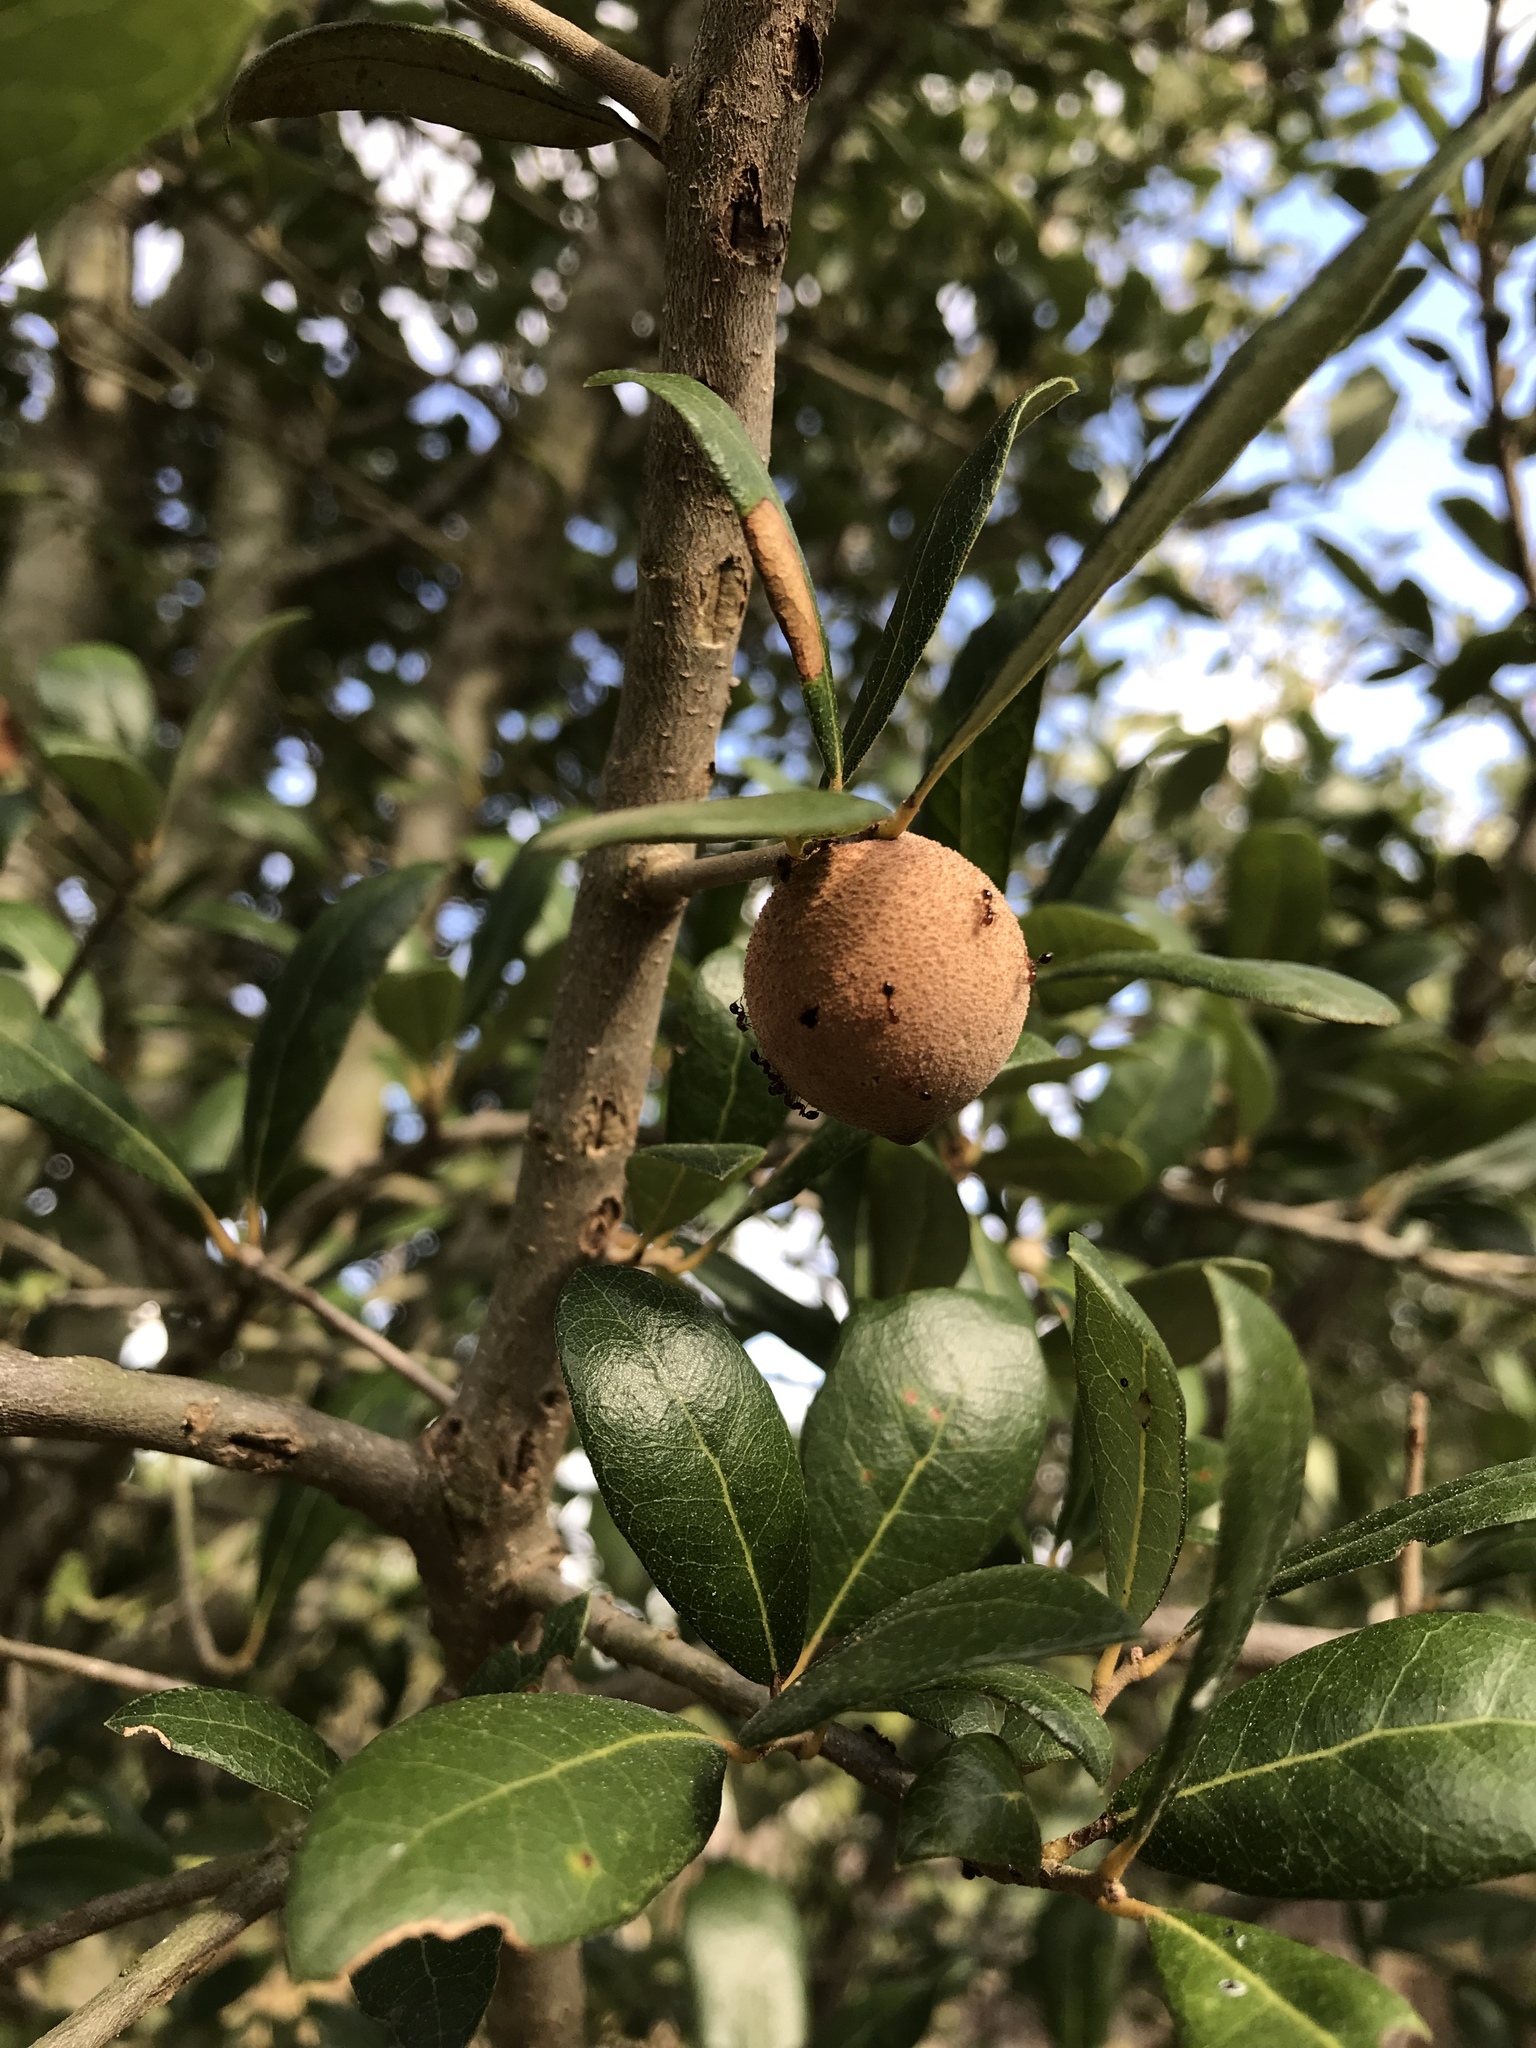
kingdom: Animalia
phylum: Arthropoda
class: Insecta
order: Hymenoptera
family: Cynipidae
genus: Disholcaspis
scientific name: Disholcaspis
